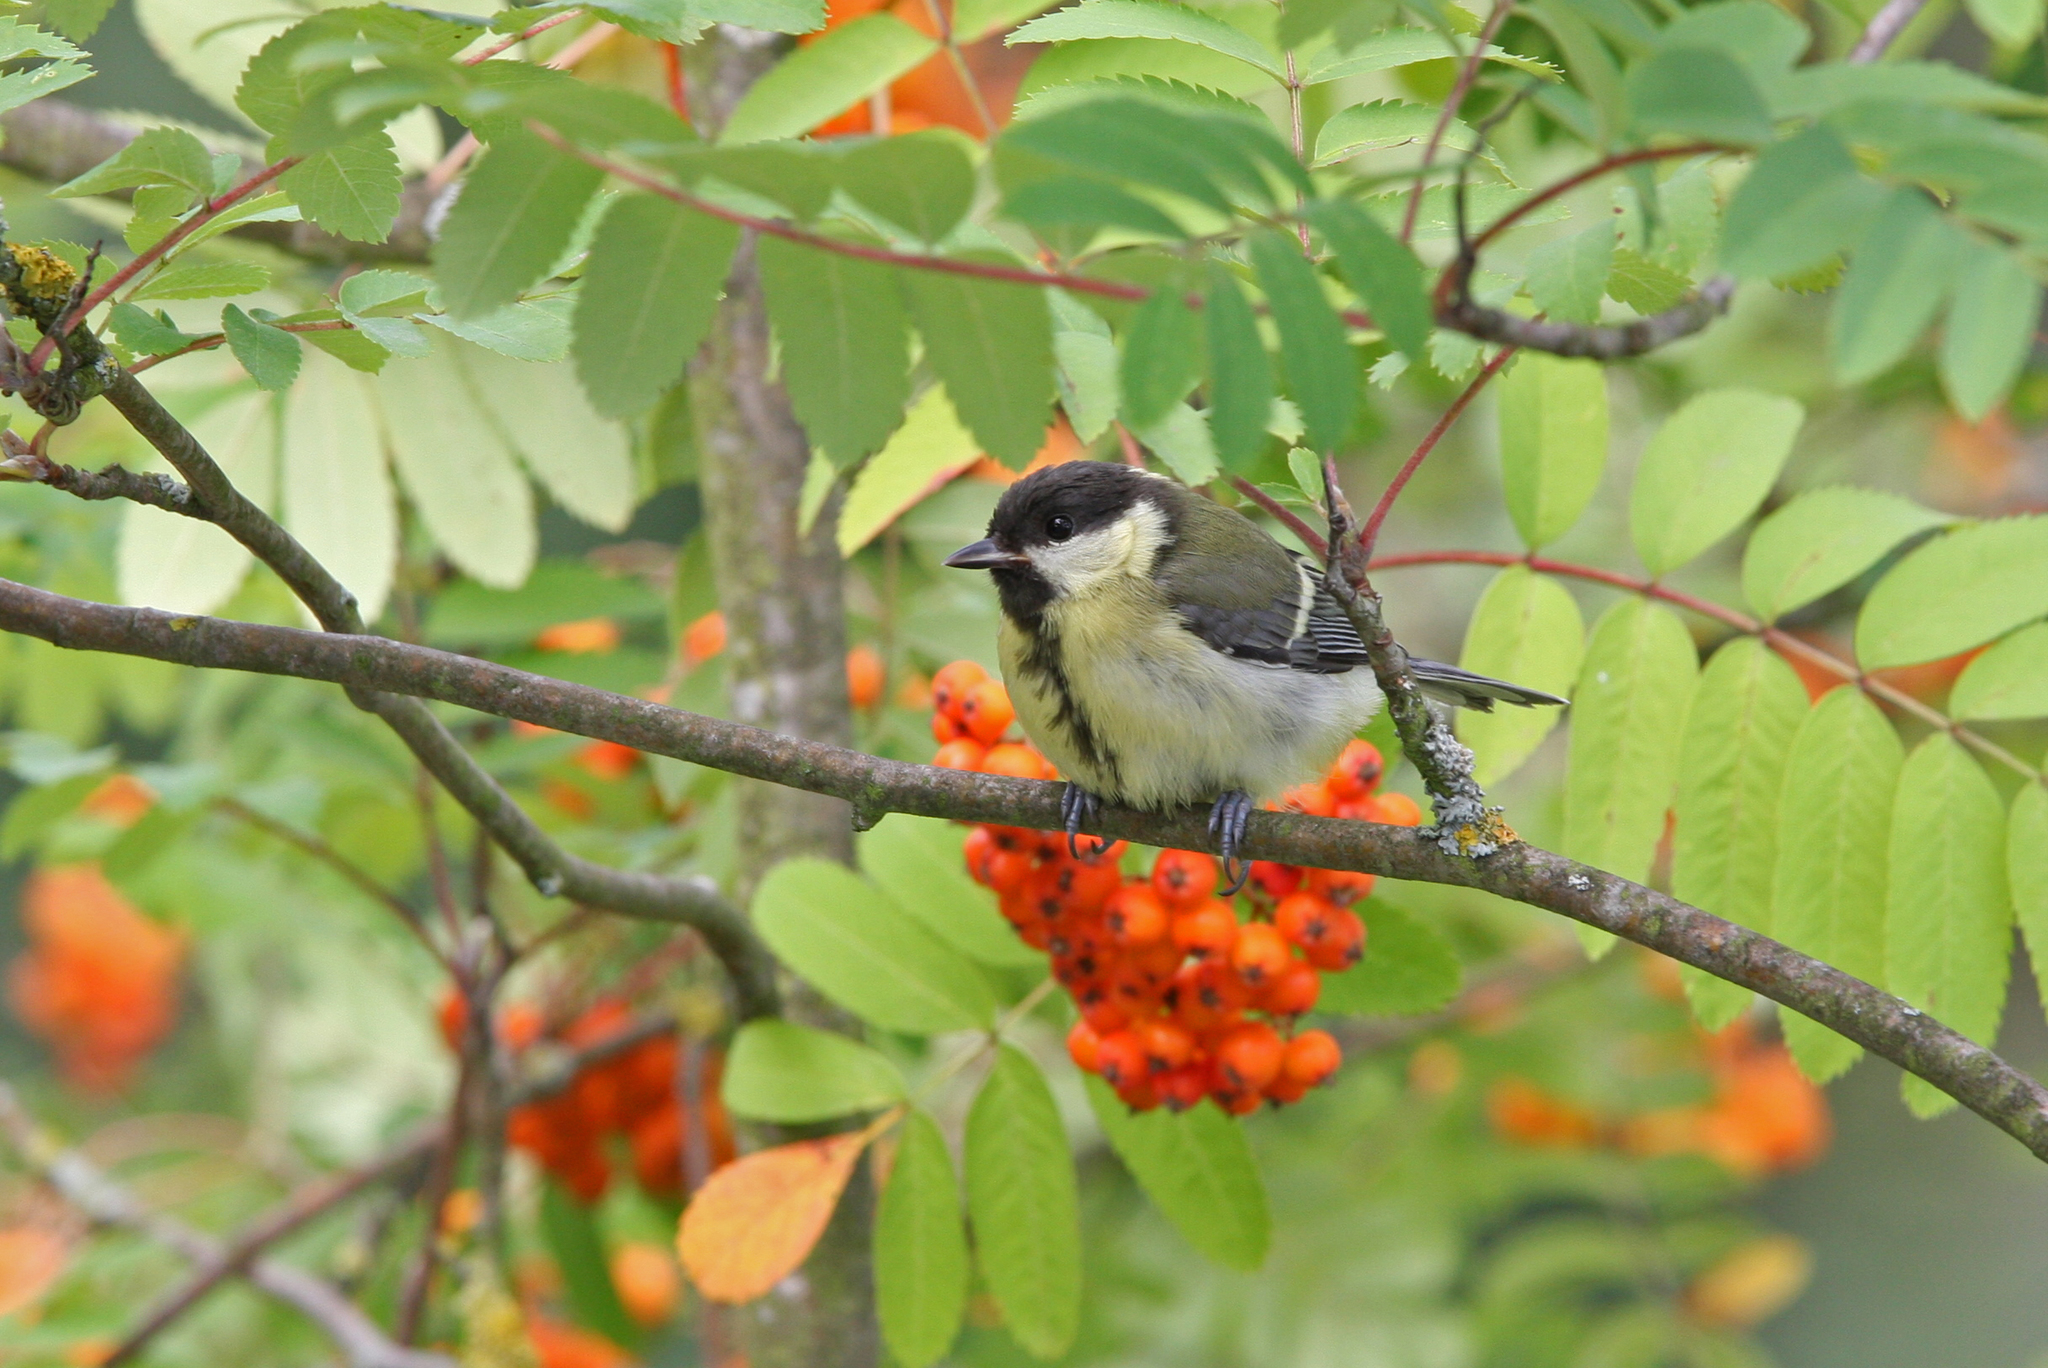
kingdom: Animalia
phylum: Chordata
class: Aves
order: Passeriformes
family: Paridae
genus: Parus
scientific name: Parus major
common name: Great tit
